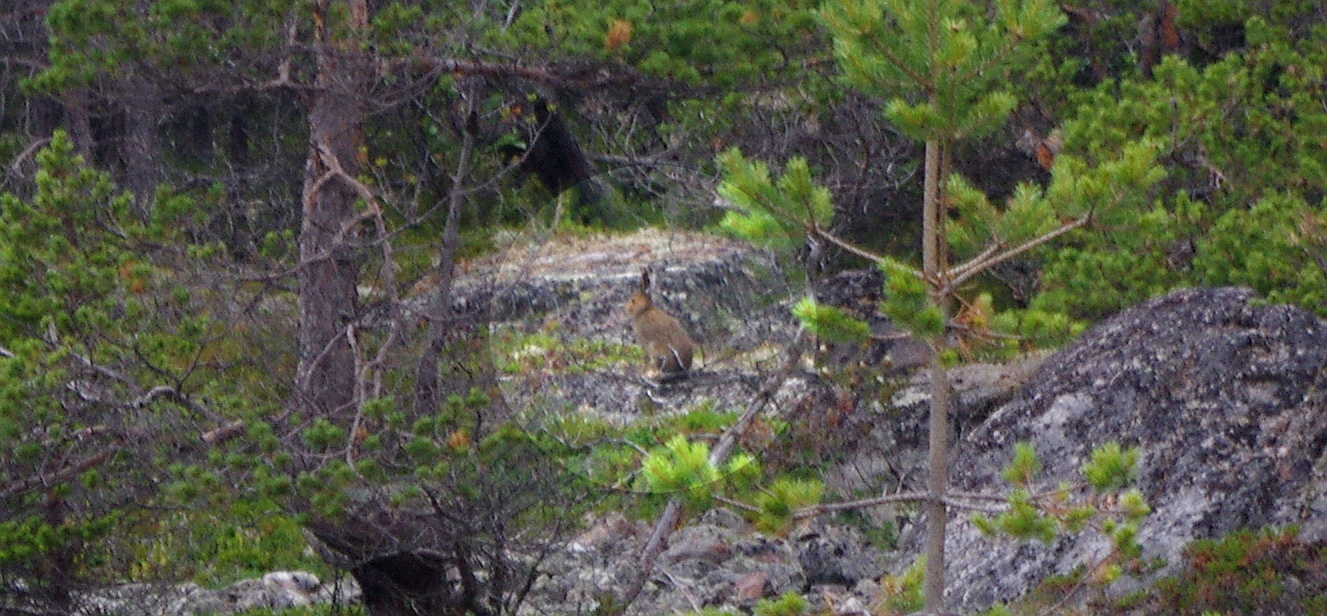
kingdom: Animalia
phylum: Chordata
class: Mammalia
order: Lagomorpha
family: Leporidae
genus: Lepus
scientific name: Lepus timidus
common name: Mountain hare
